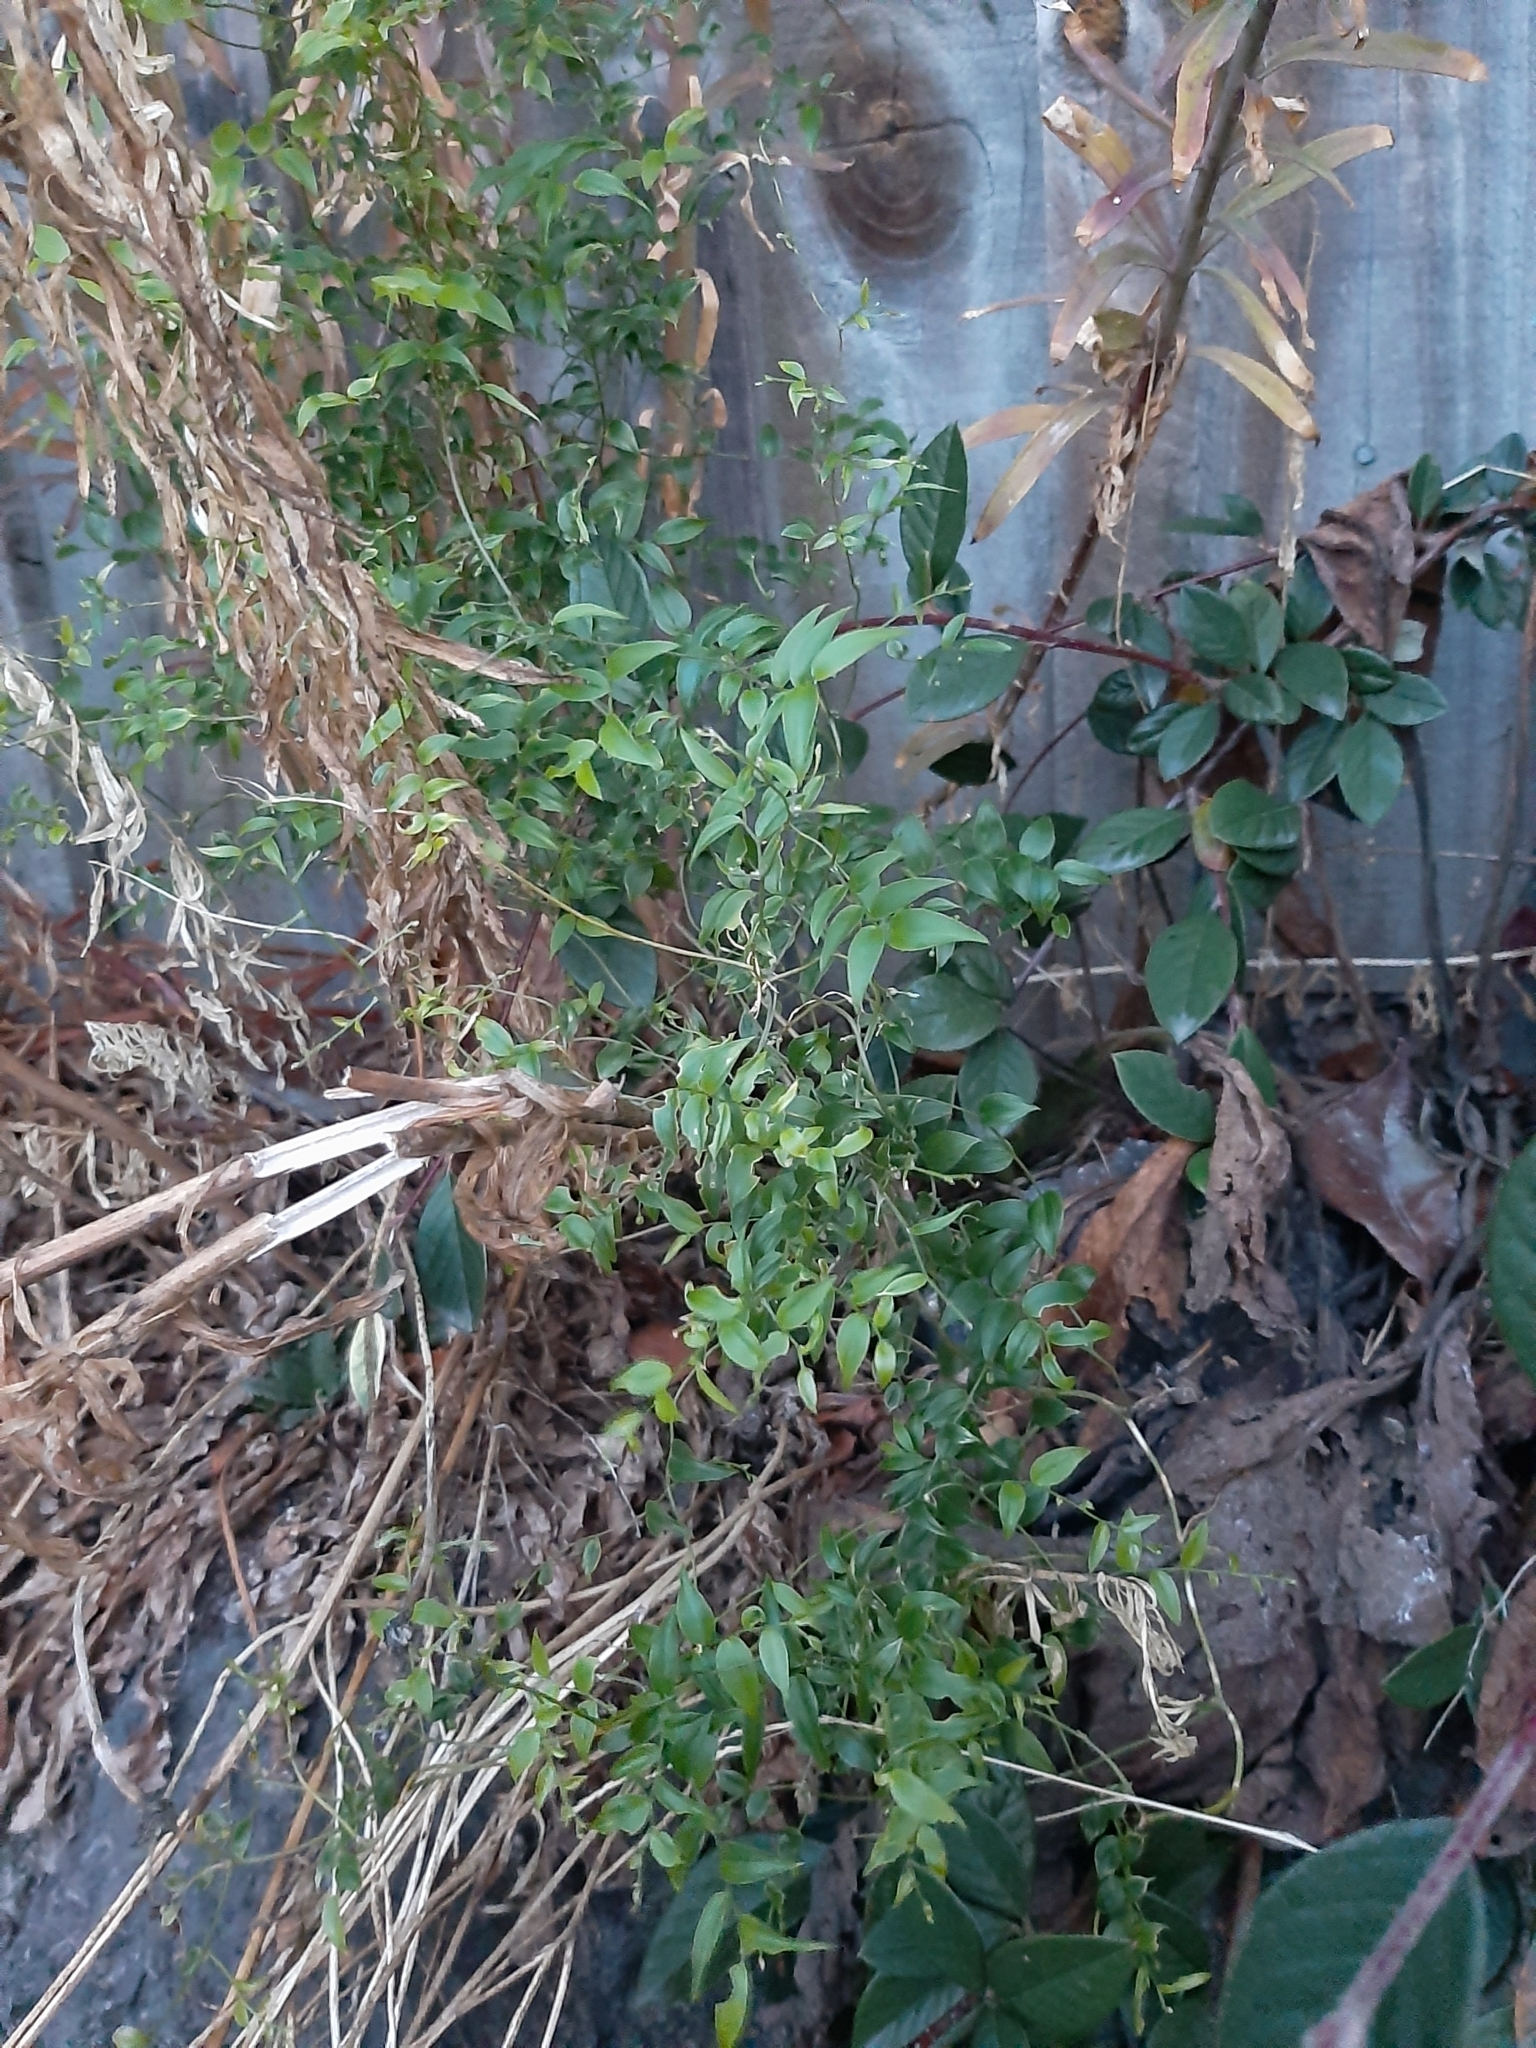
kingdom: Plantae
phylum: Tracheophyta
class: Liliopsida
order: Asparagales
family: Asparagaceae
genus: Asparagus
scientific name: Asparagus asparagoides
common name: African asparagus fern
